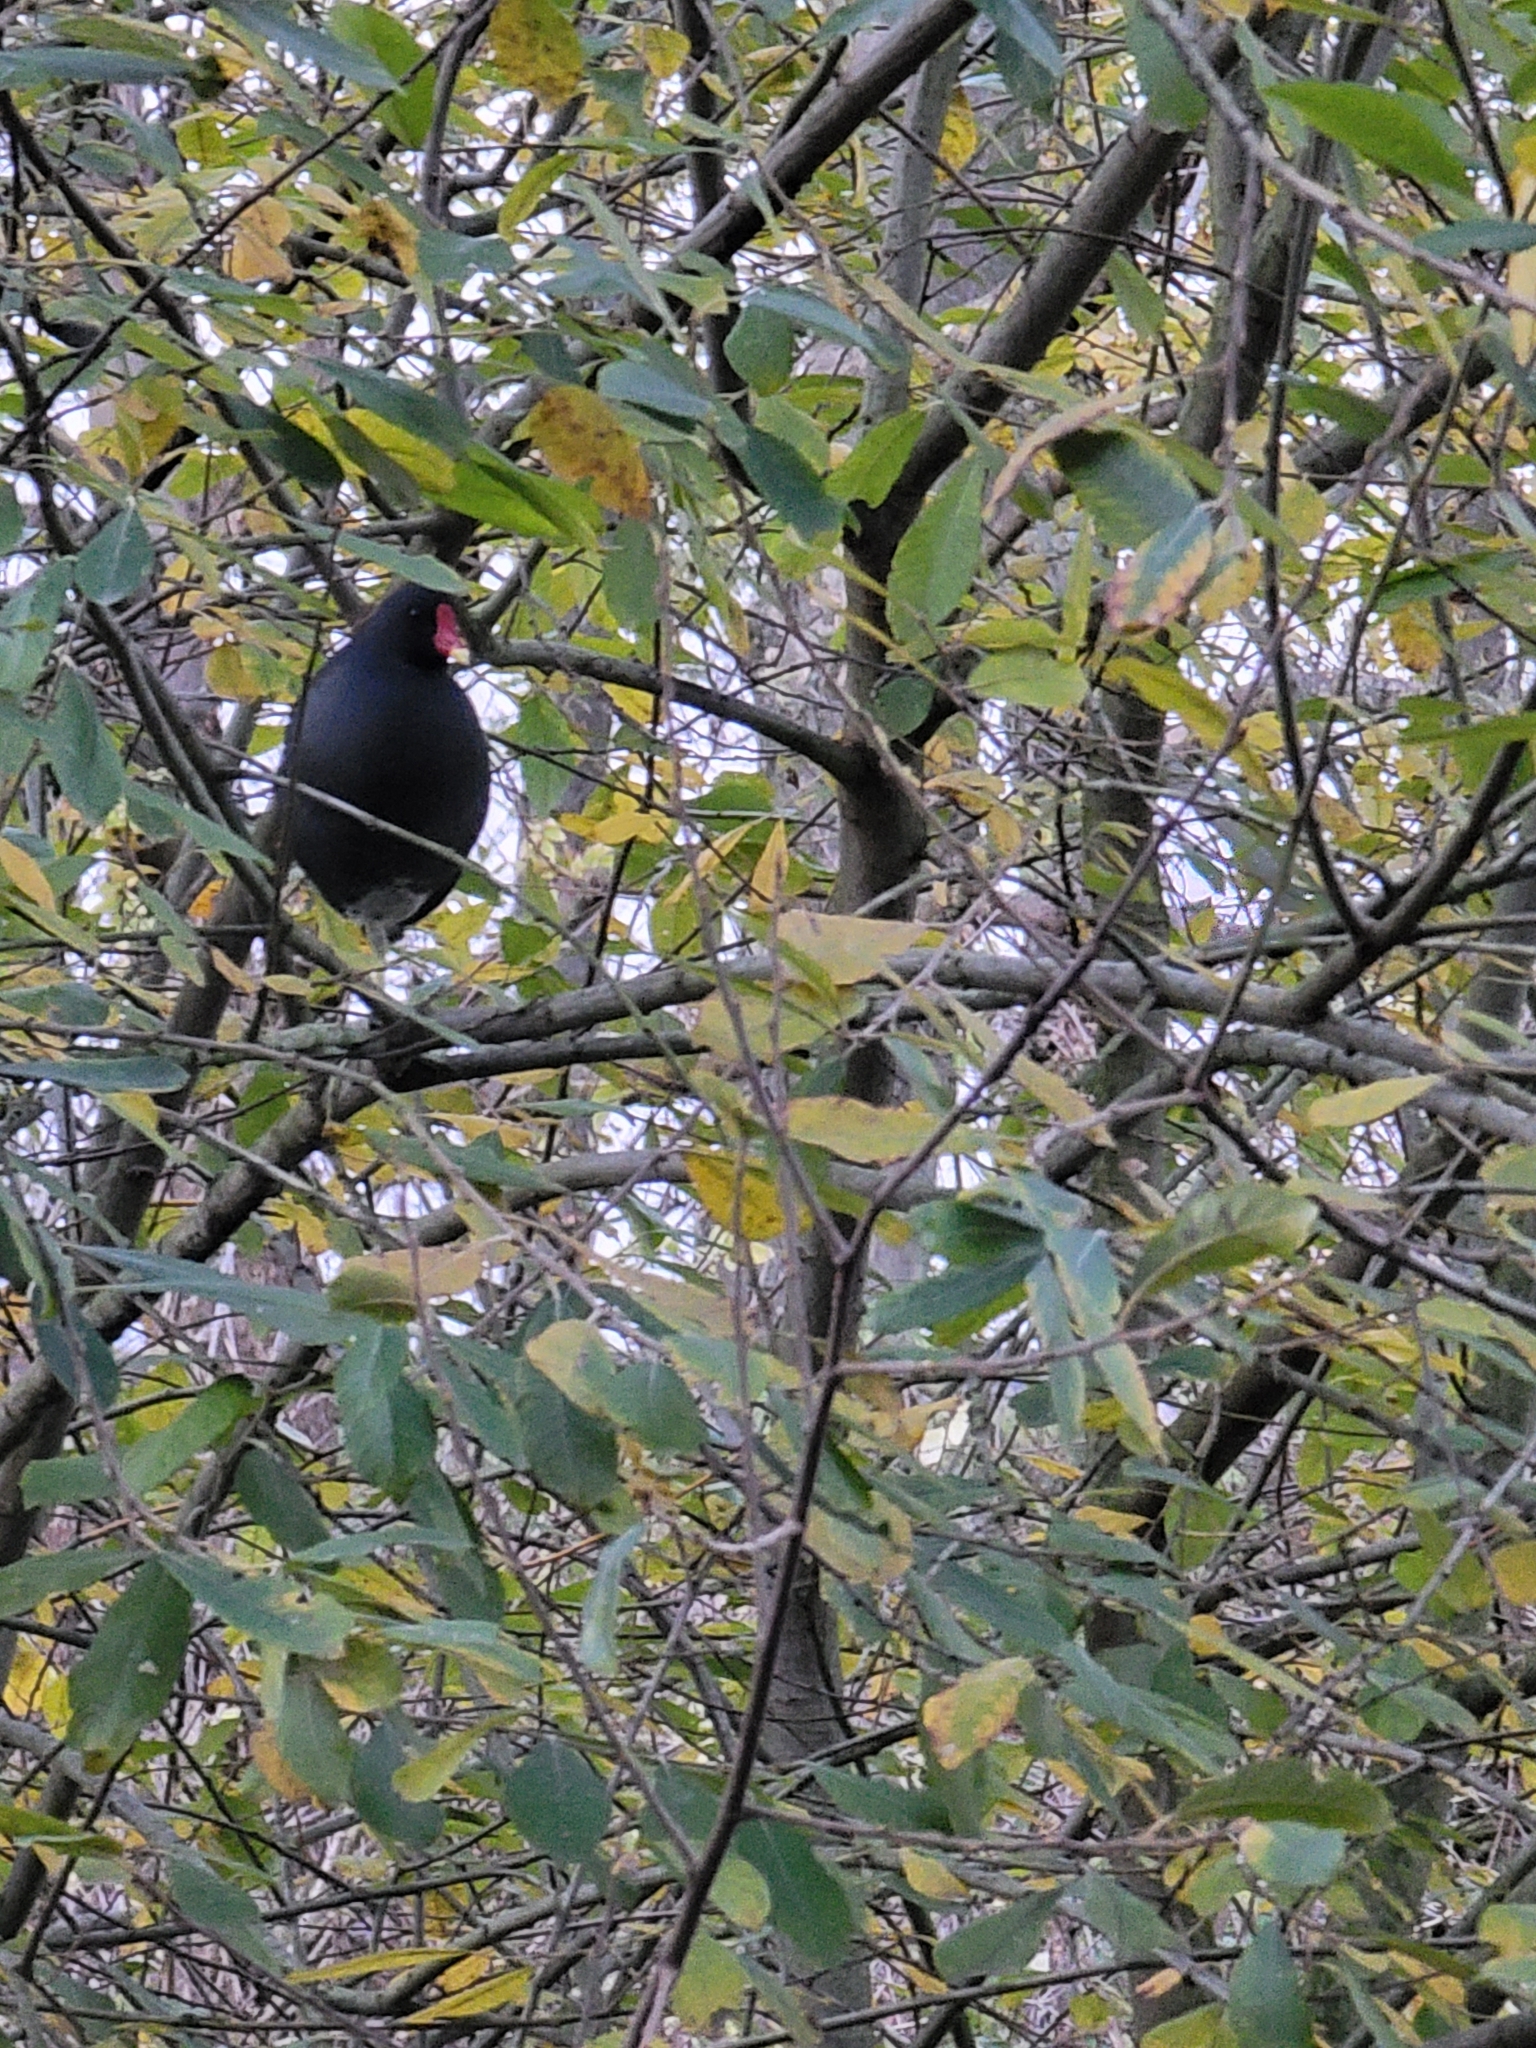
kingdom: Animalia
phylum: Chordata
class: Aves
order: Gruiformes
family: Rallidae
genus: Gallinula
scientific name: Gallinula chloropus
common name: Common moorhen
